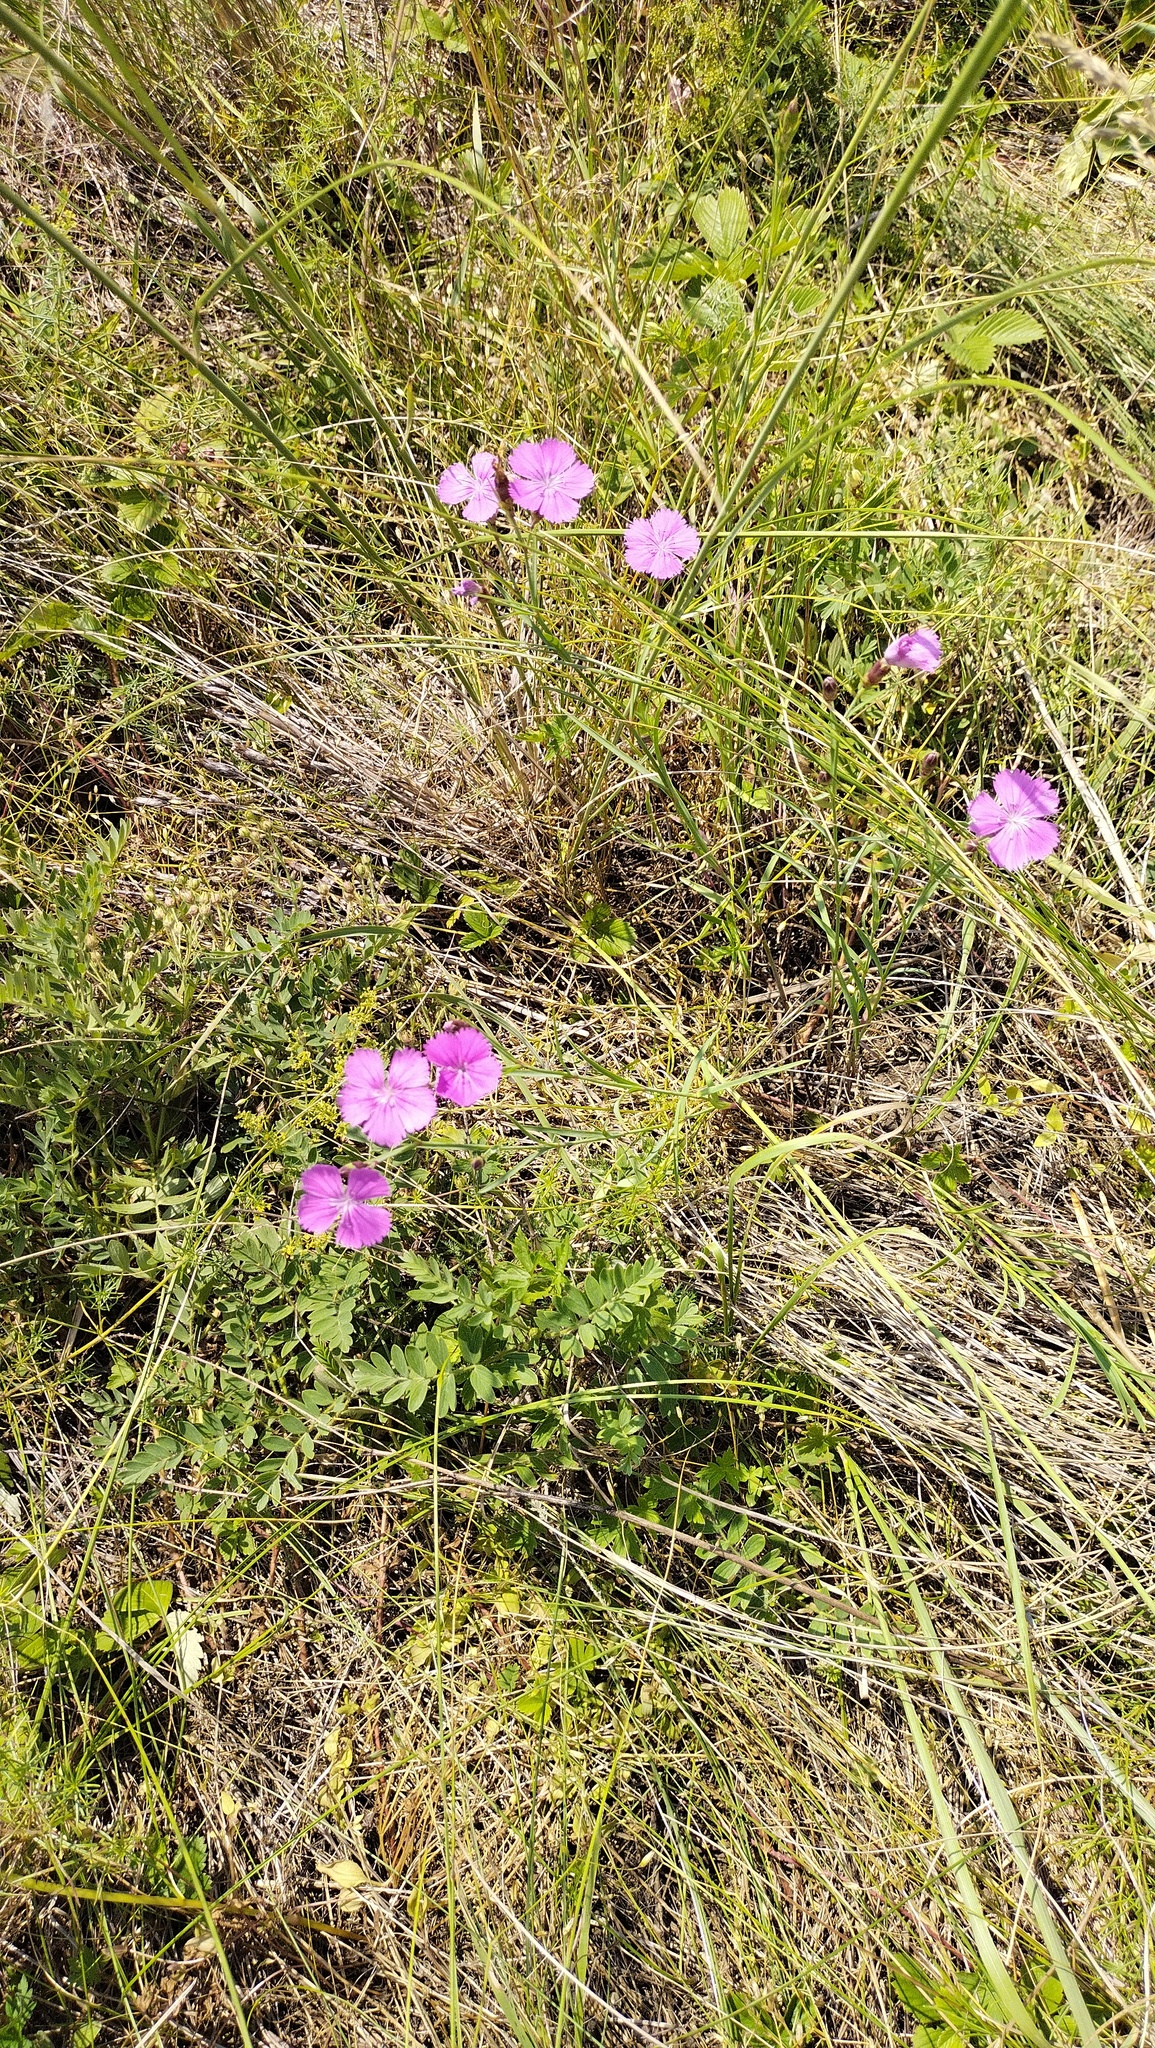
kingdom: Plantae
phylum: Tracheophyta
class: Magnoliopsida
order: Caryophyllales
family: Caryophyllaceae
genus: Dianthus
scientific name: Dianthus chinensis
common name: Rainbow pink
